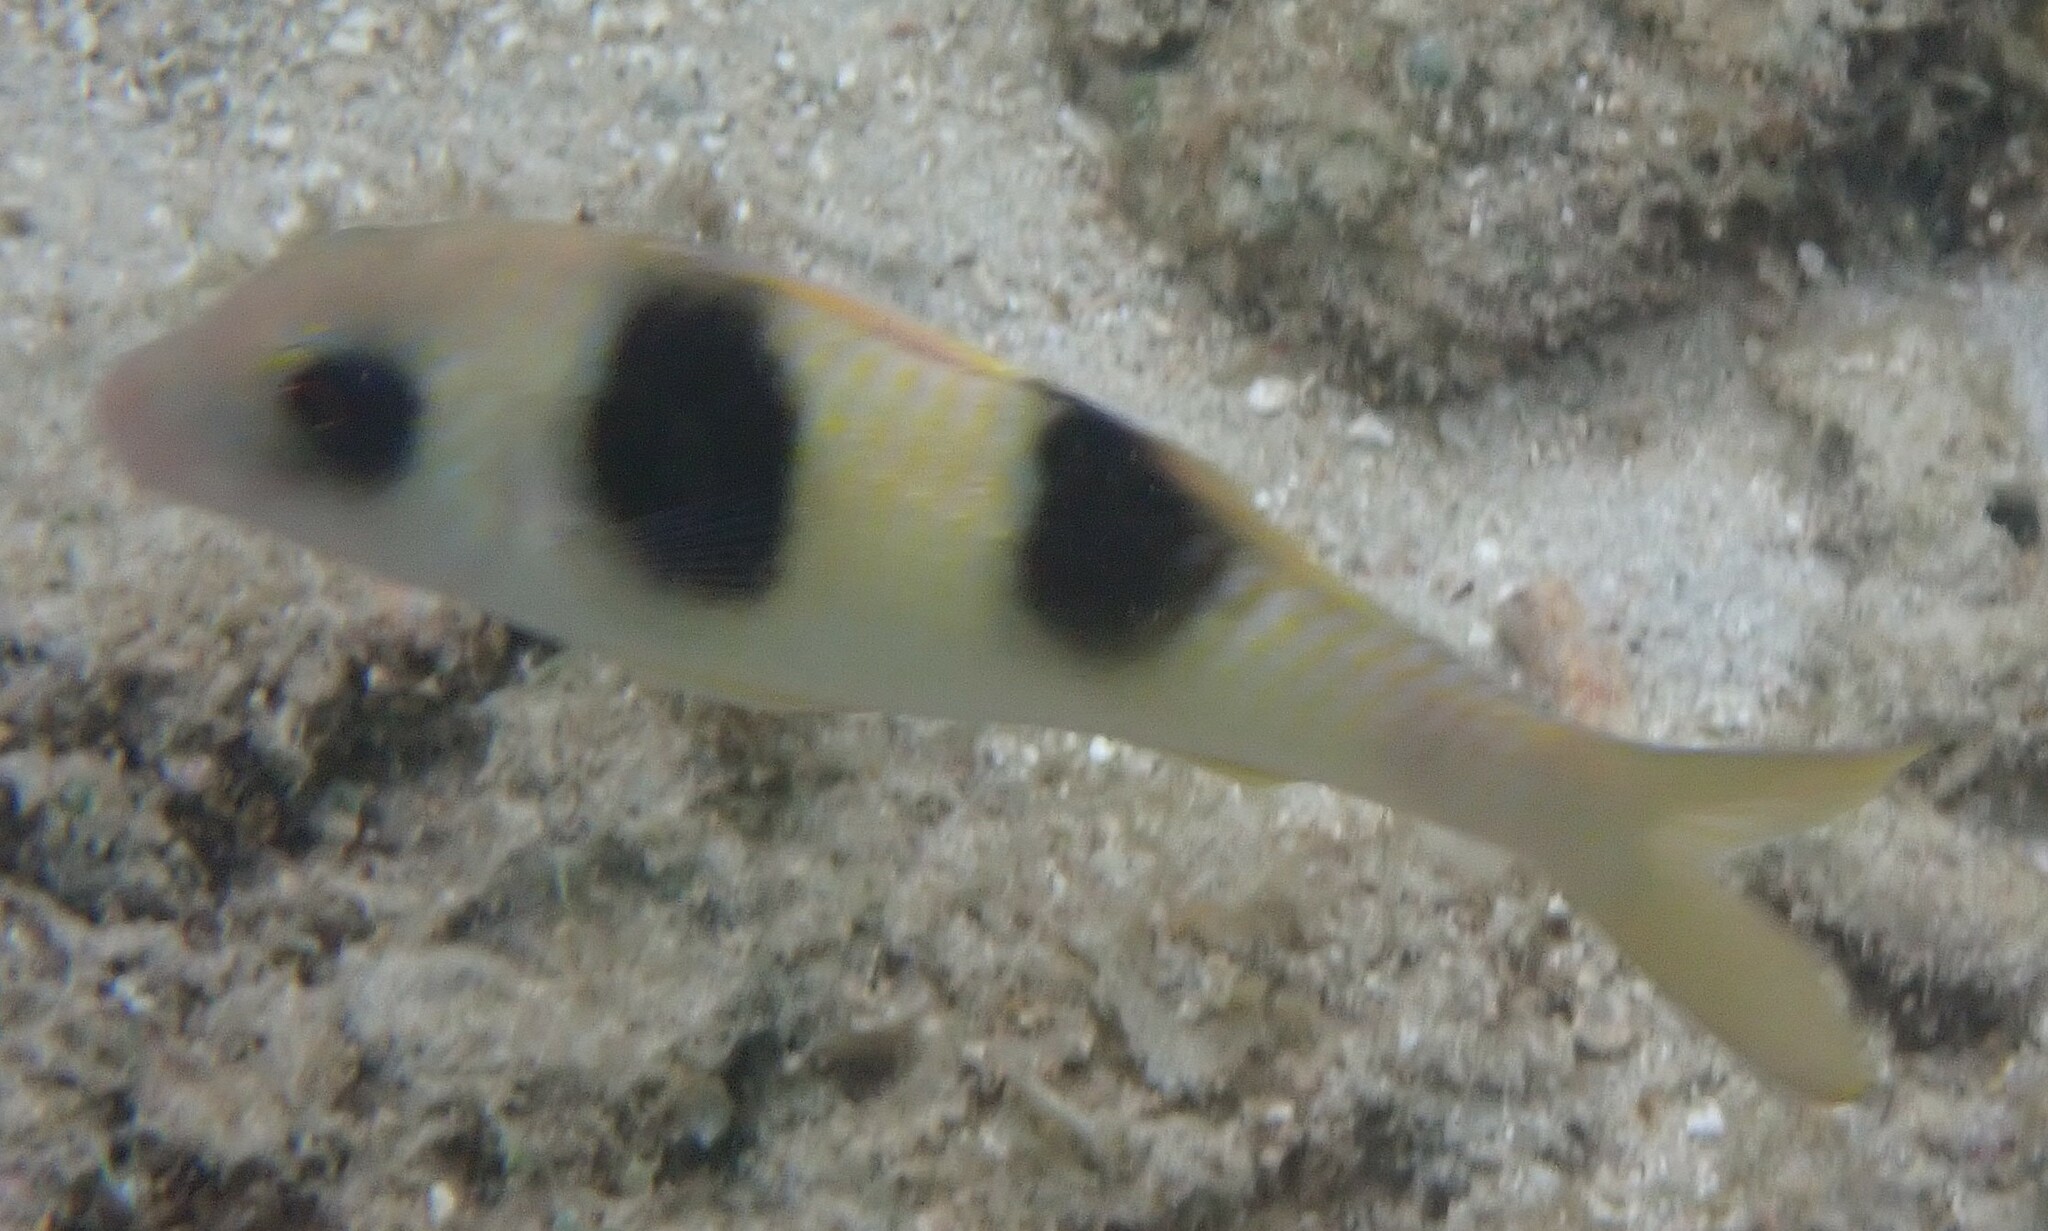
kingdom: Animalia
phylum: Chordata
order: Perciformes
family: Mullidae
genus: Parupeneus
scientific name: Parupeneus crassilabris
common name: Doublebar goatfish
